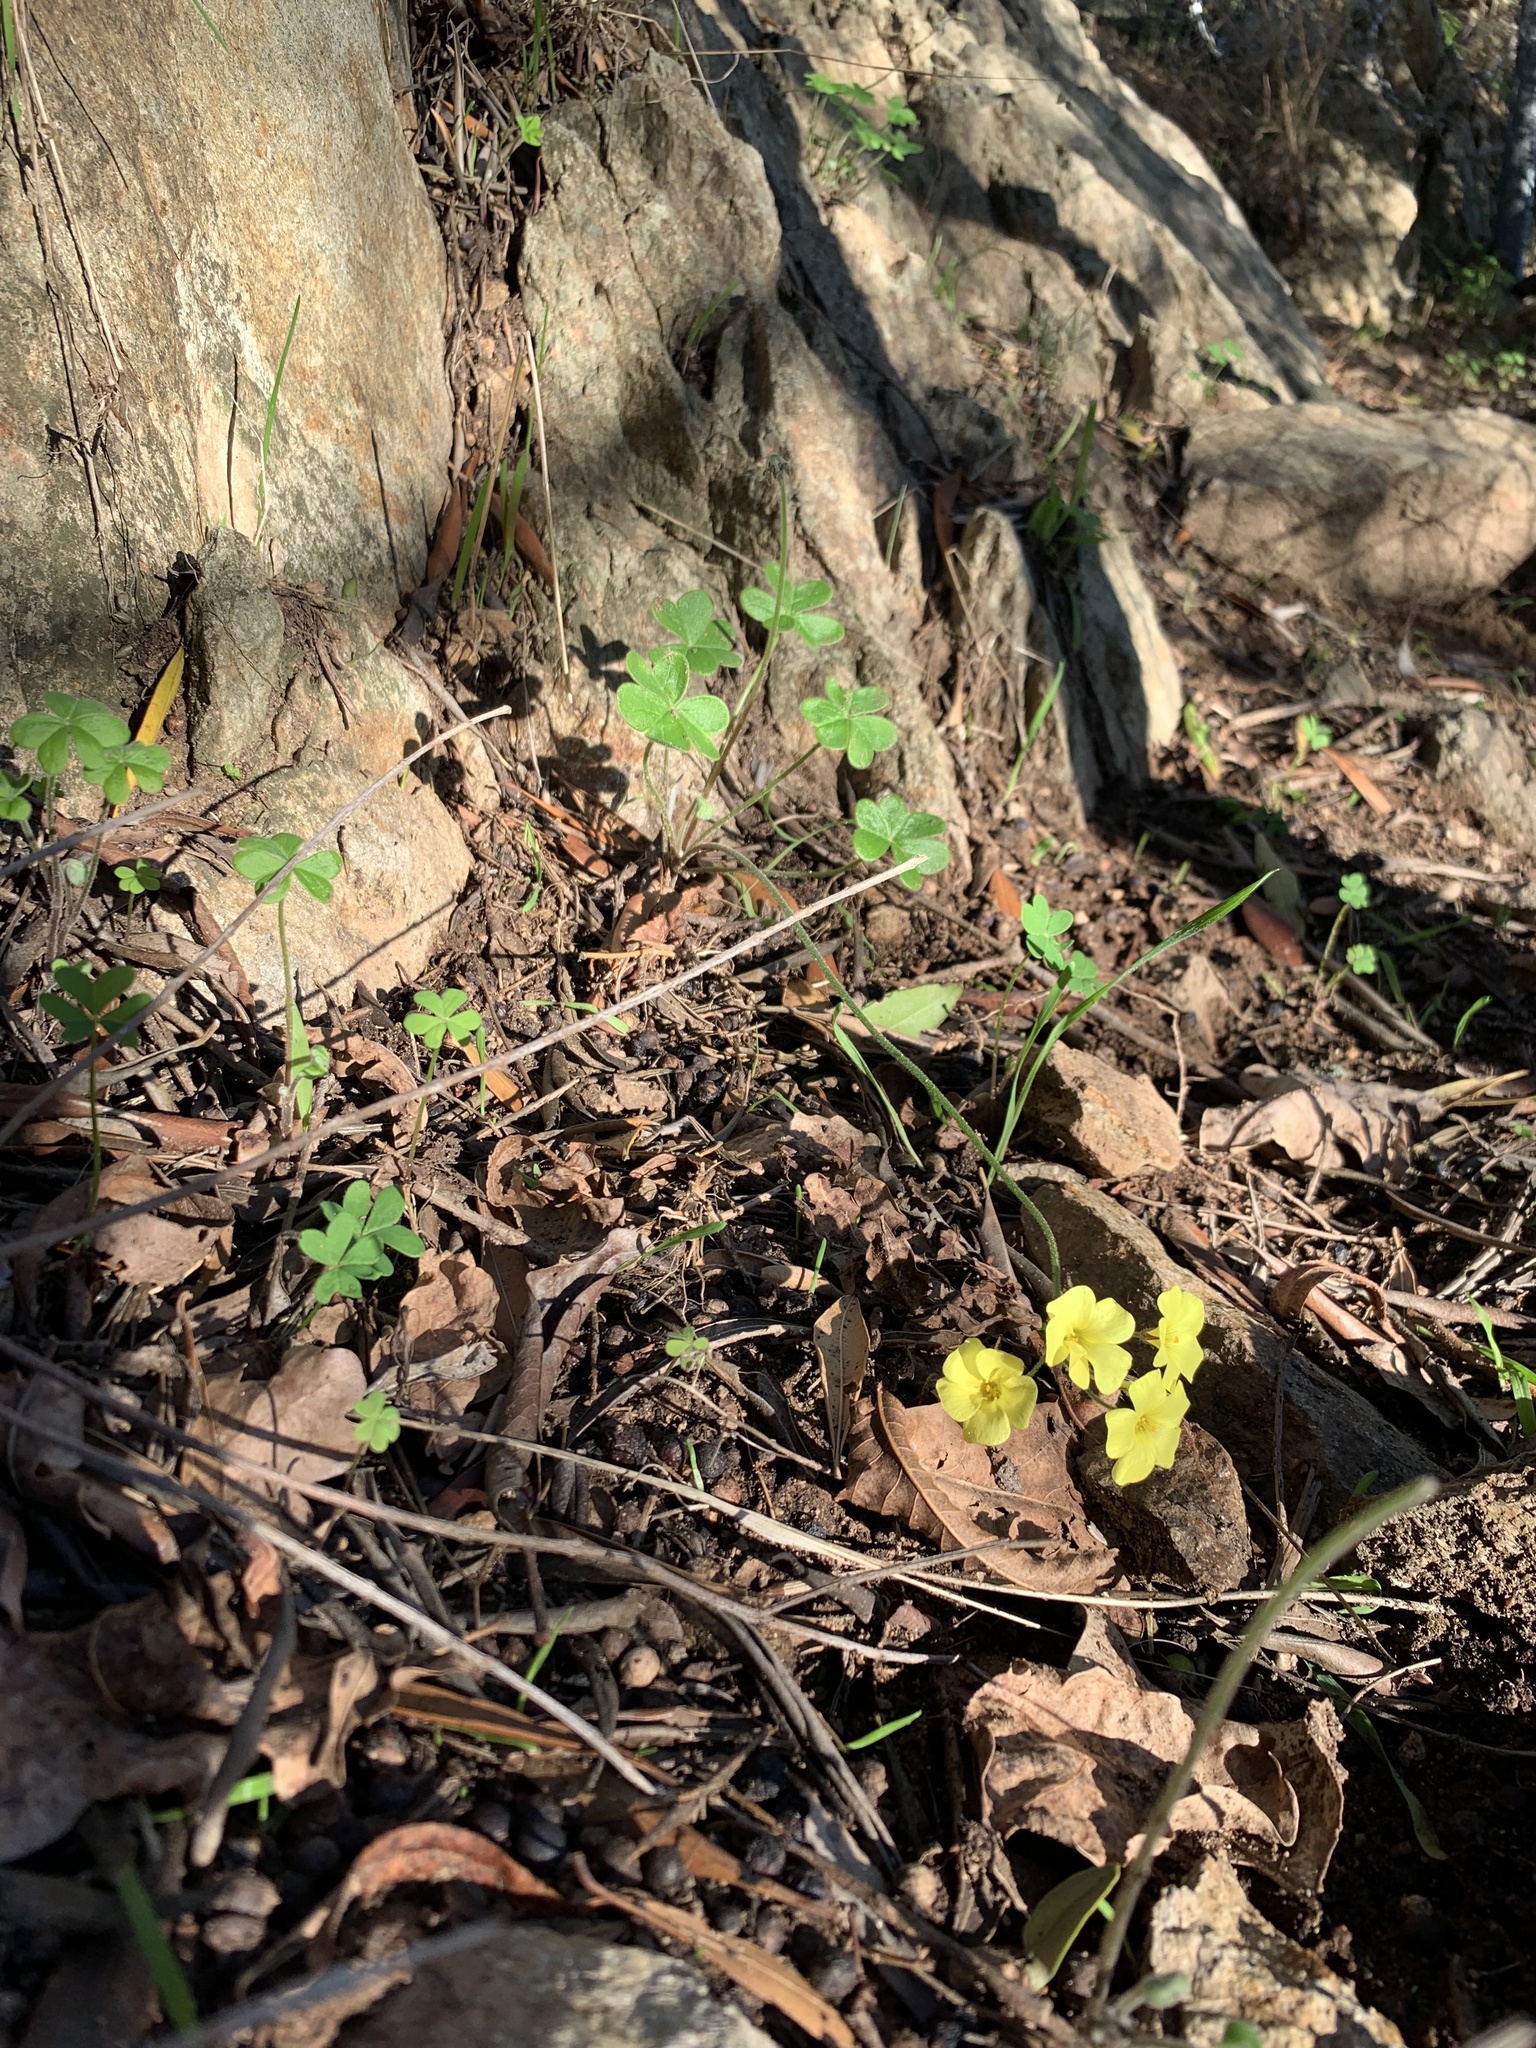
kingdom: Plantae
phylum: Tracheophyta
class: Magnoliopsida
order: Oxalidales
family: Oxalidaceae
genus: Oxalis
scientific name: Oxalis pes-caprae
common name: Bermuda-buttercup
